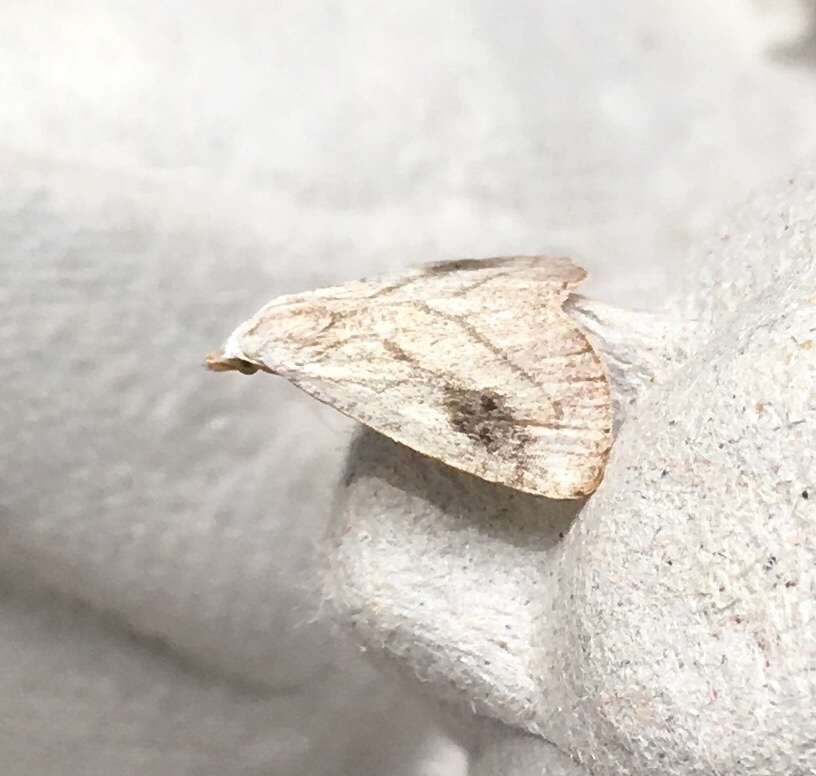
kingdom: Animalia
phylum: Arthropoda
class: Insecta
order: Lepidoptera
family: Erebidae
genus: Rivula
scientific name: Rivula propinqualis
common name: Spotted grass moth
